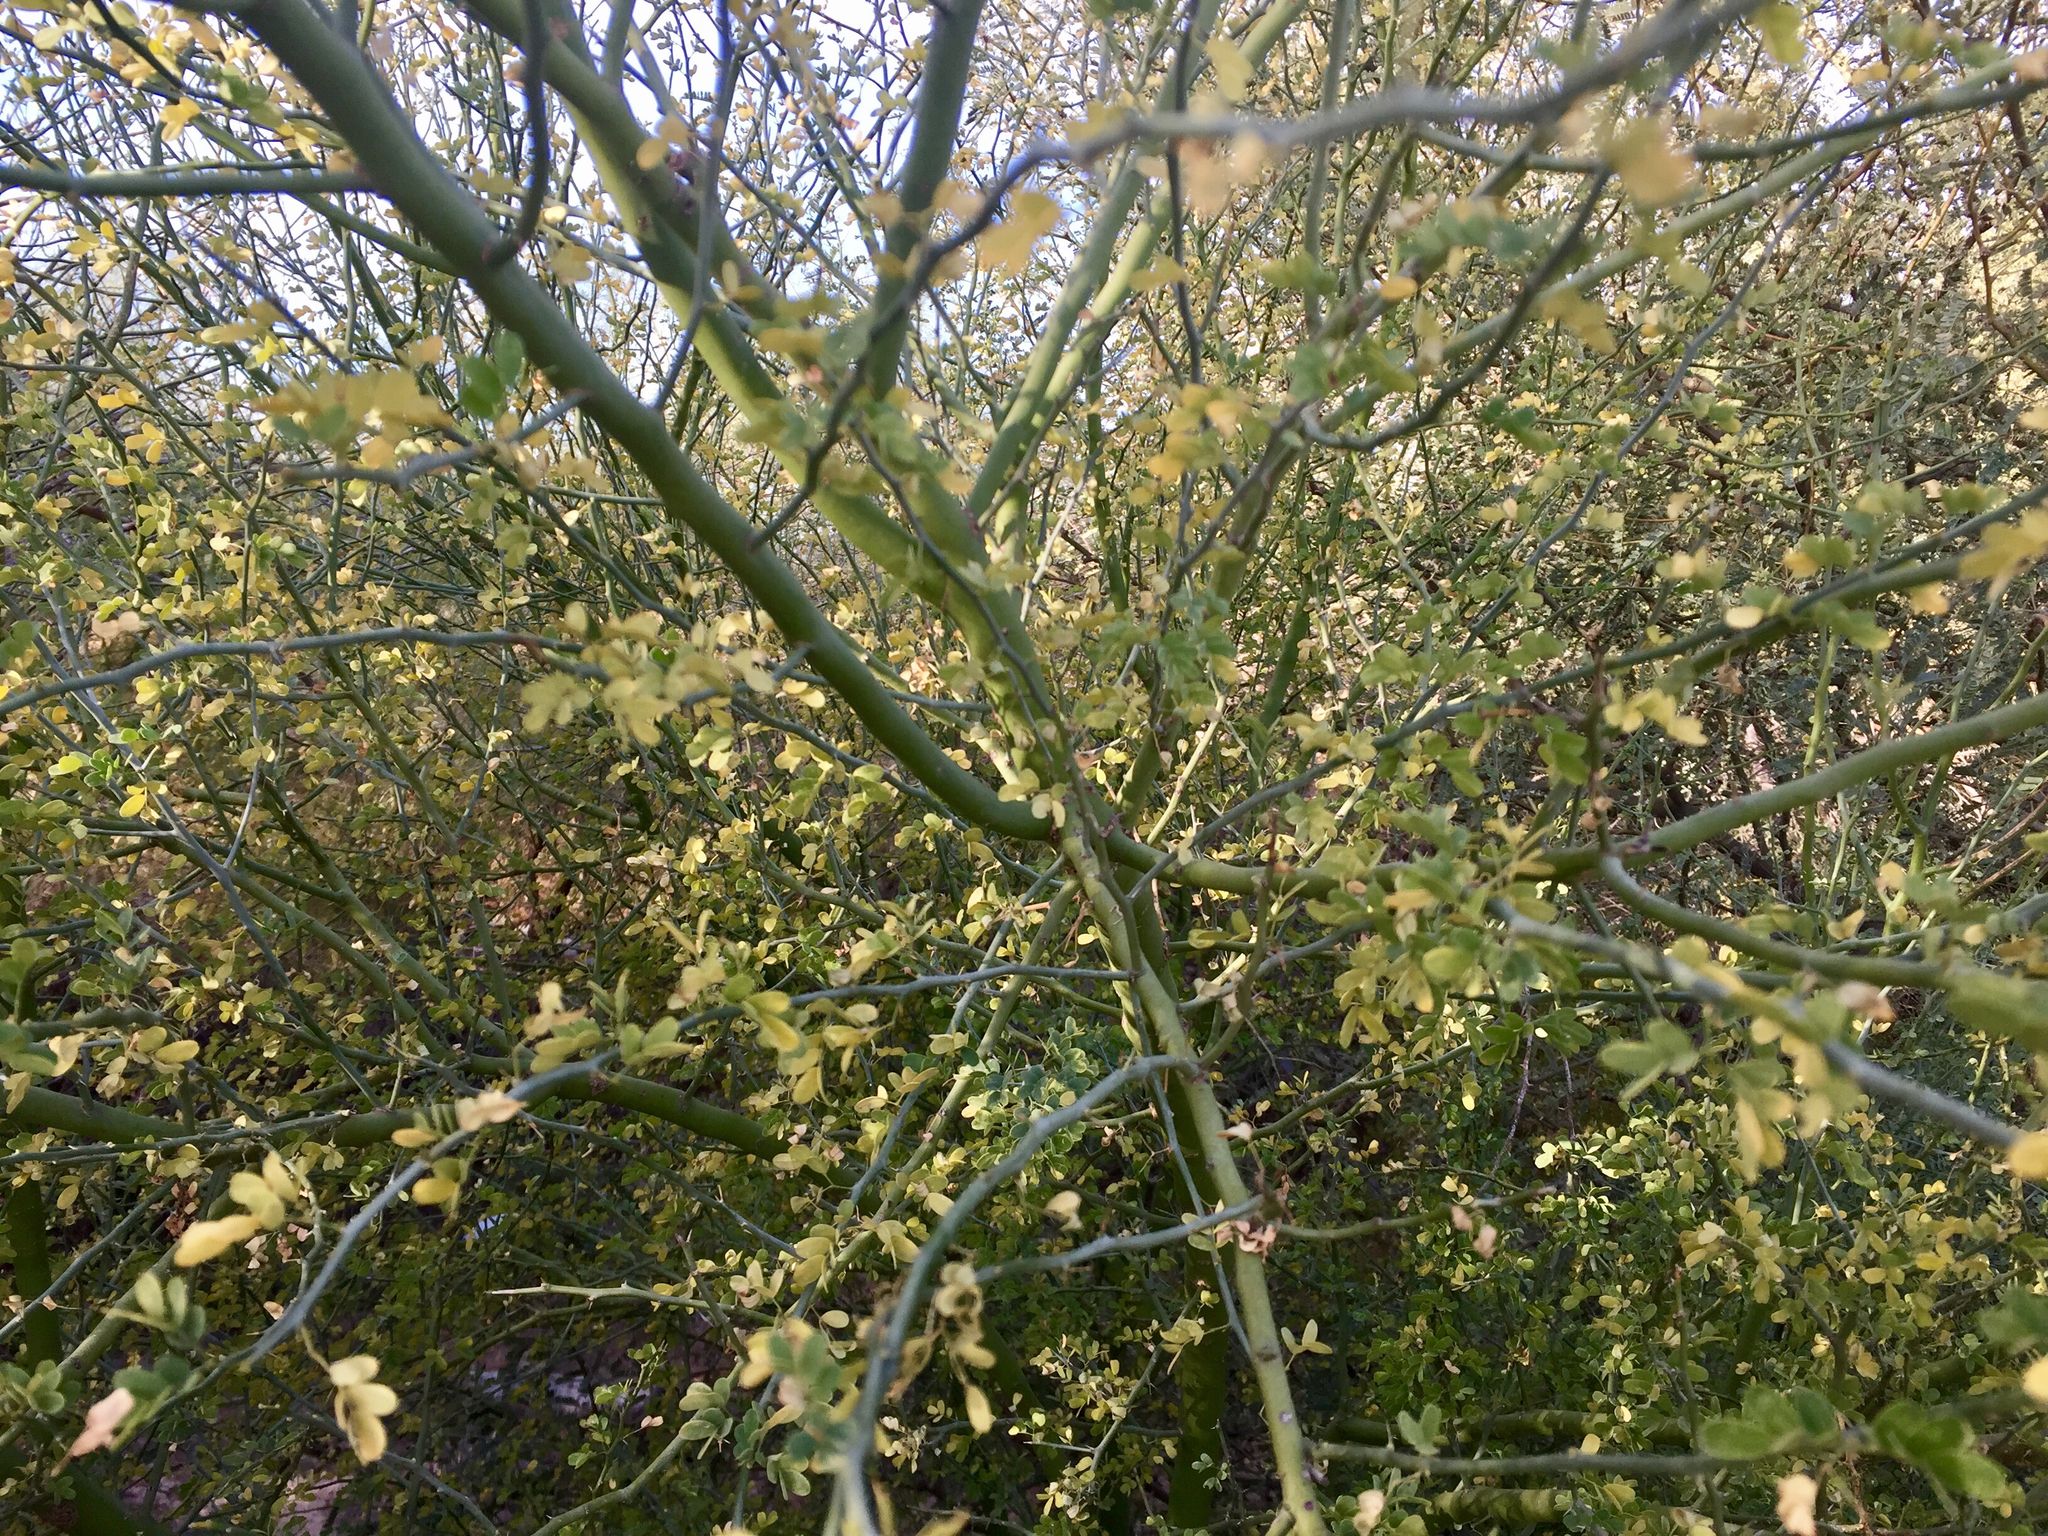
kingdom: Plantae
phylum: Tracheophyta
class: Magnoliopsida
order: Fabales
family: Fabaceae
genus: Parkinsonia
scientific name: Parkinsonia florida
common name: Blue paloverde
